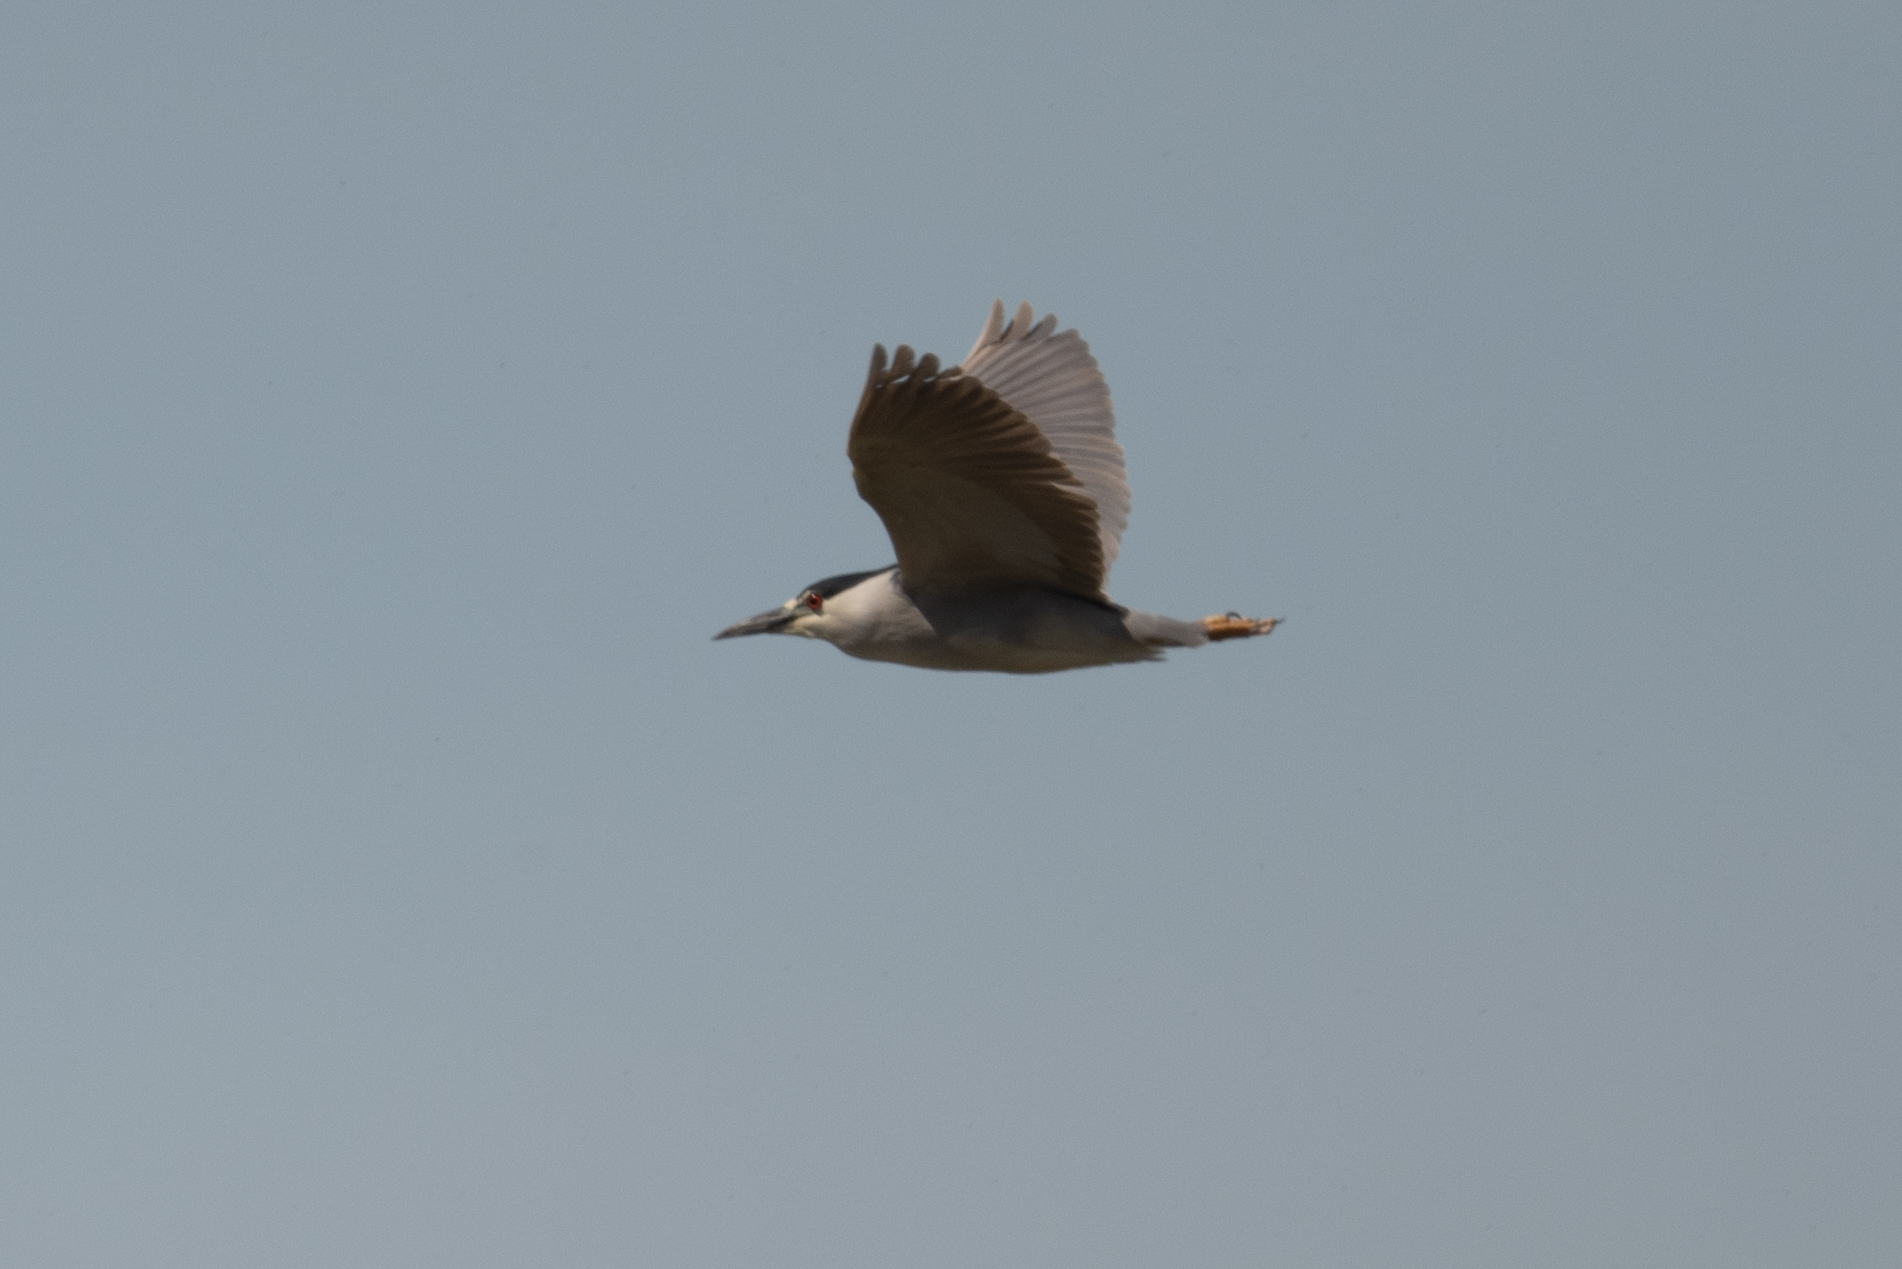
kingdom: Animalia
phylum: Chordata
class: Aves
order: Pelecaniformes
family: Ardeidae
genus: Nycticorax
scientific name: Nycticorax nycticorax
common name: Black-crowned night heron
